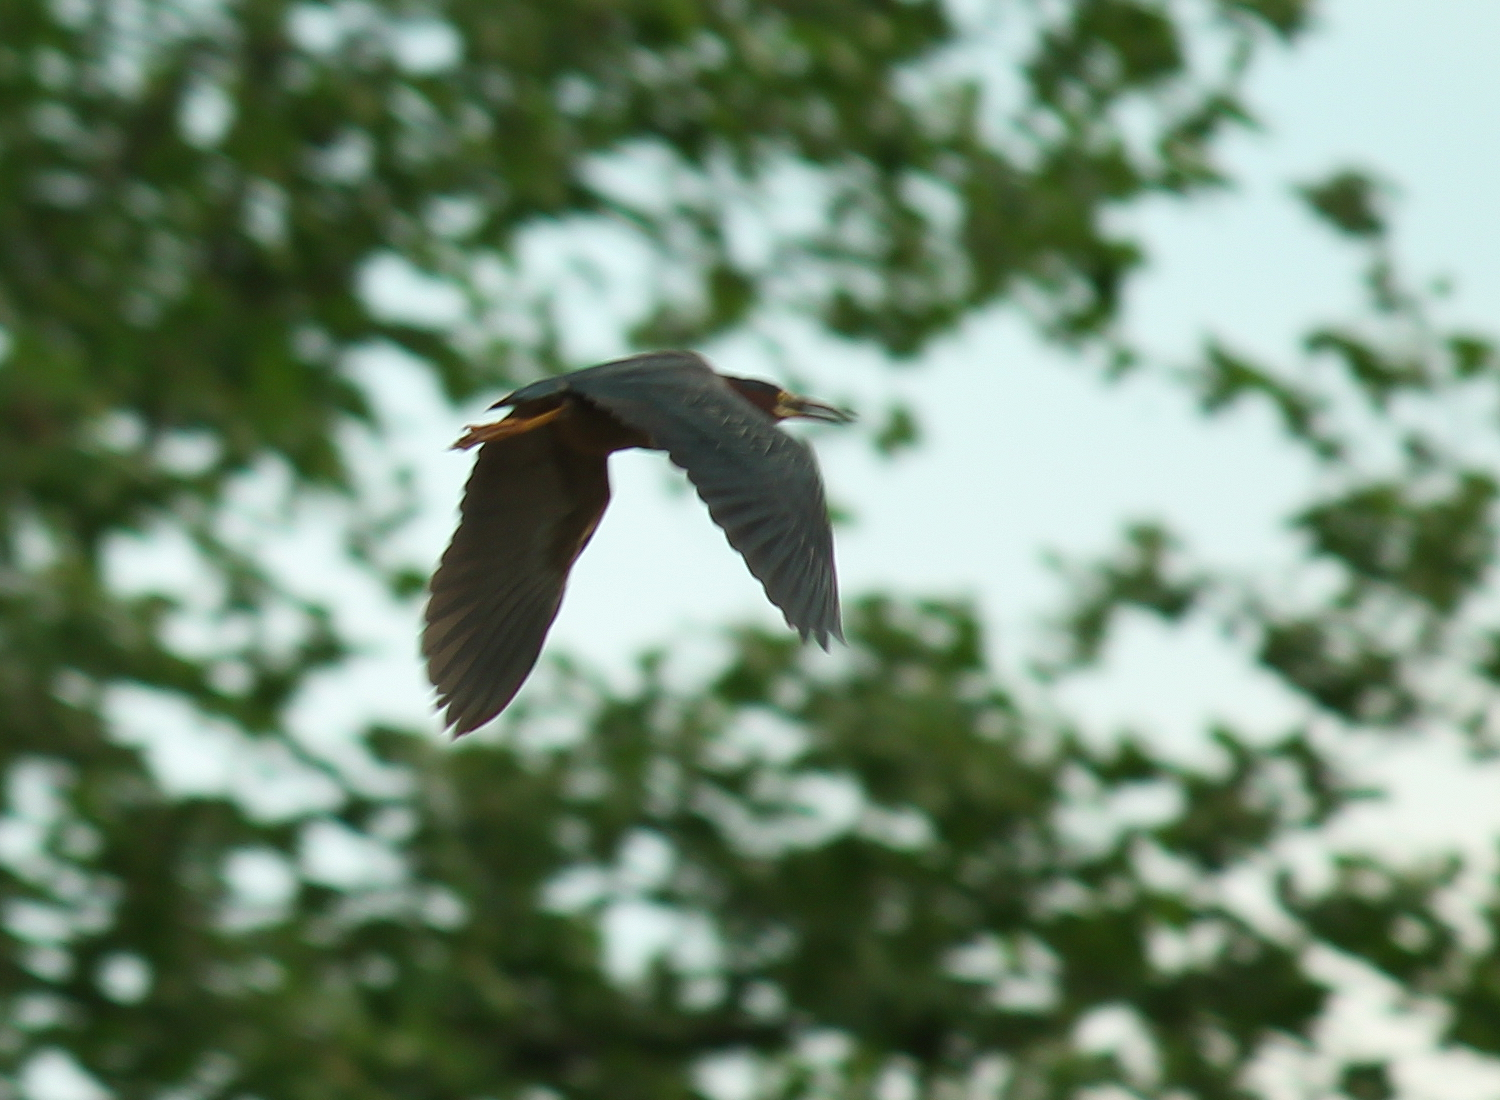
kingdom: Animalia
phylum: Chordata
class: Aves
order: Pelecaniformes
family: Ardeidae
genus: Butorides
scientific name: Butorides virescens
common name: Green heron
